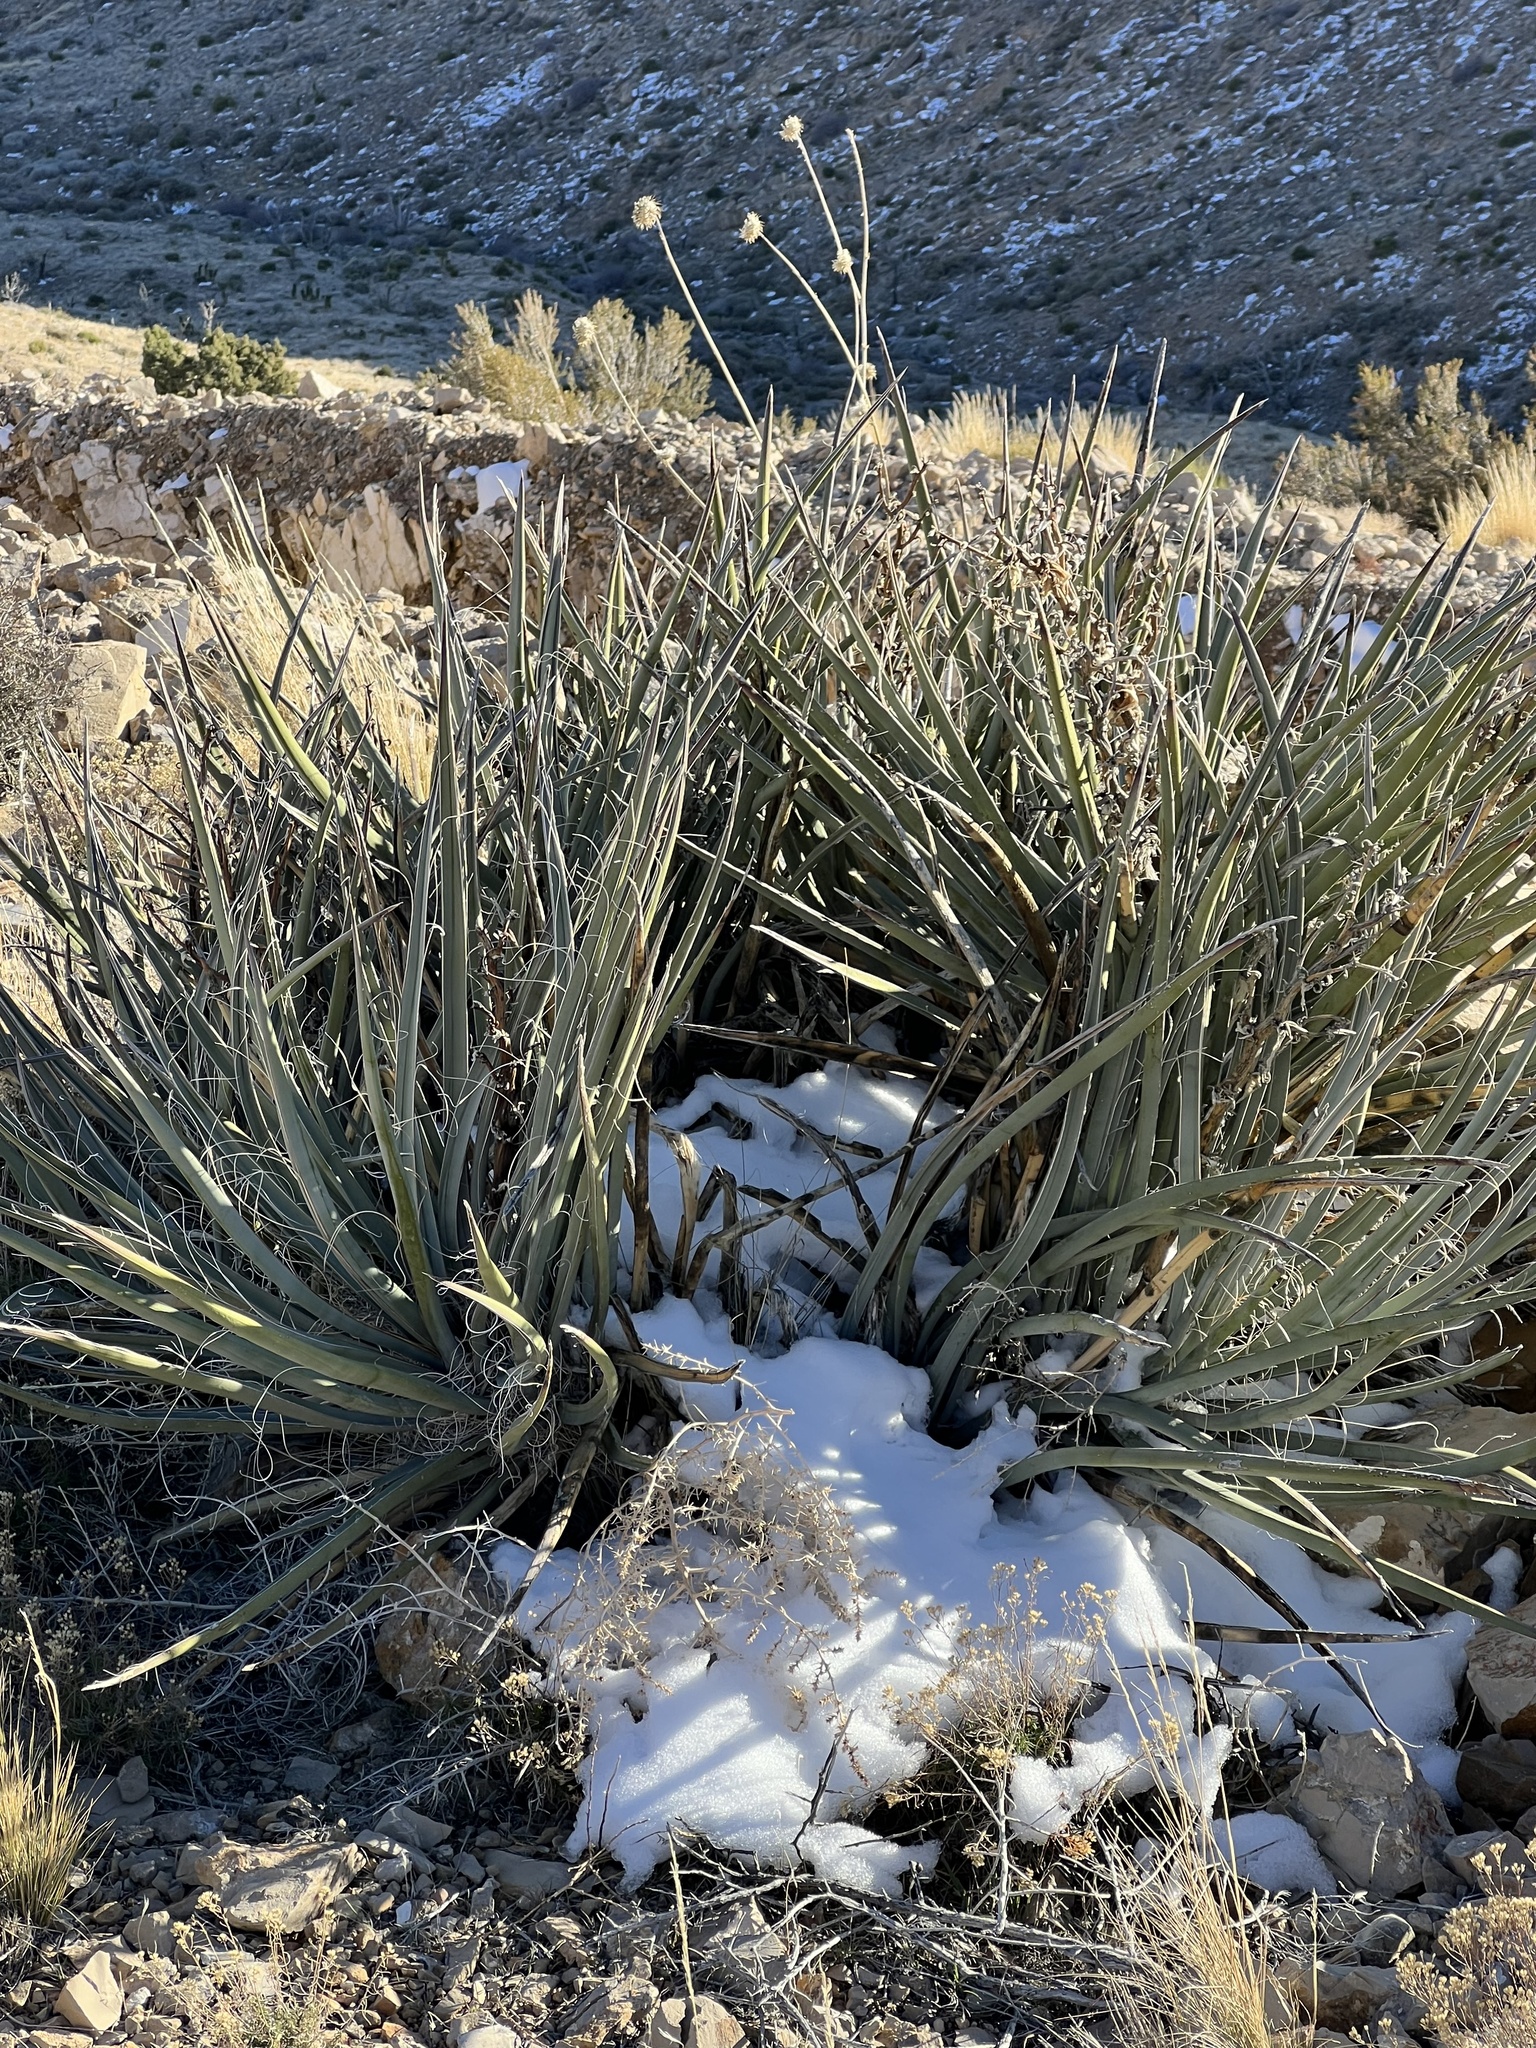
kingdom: Plantae
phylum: Tracheophyta
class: Liliopsida
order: Asparagales
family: Asparagaceae
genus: Yucca
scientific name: Yucca baccata
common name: Banana yucca
